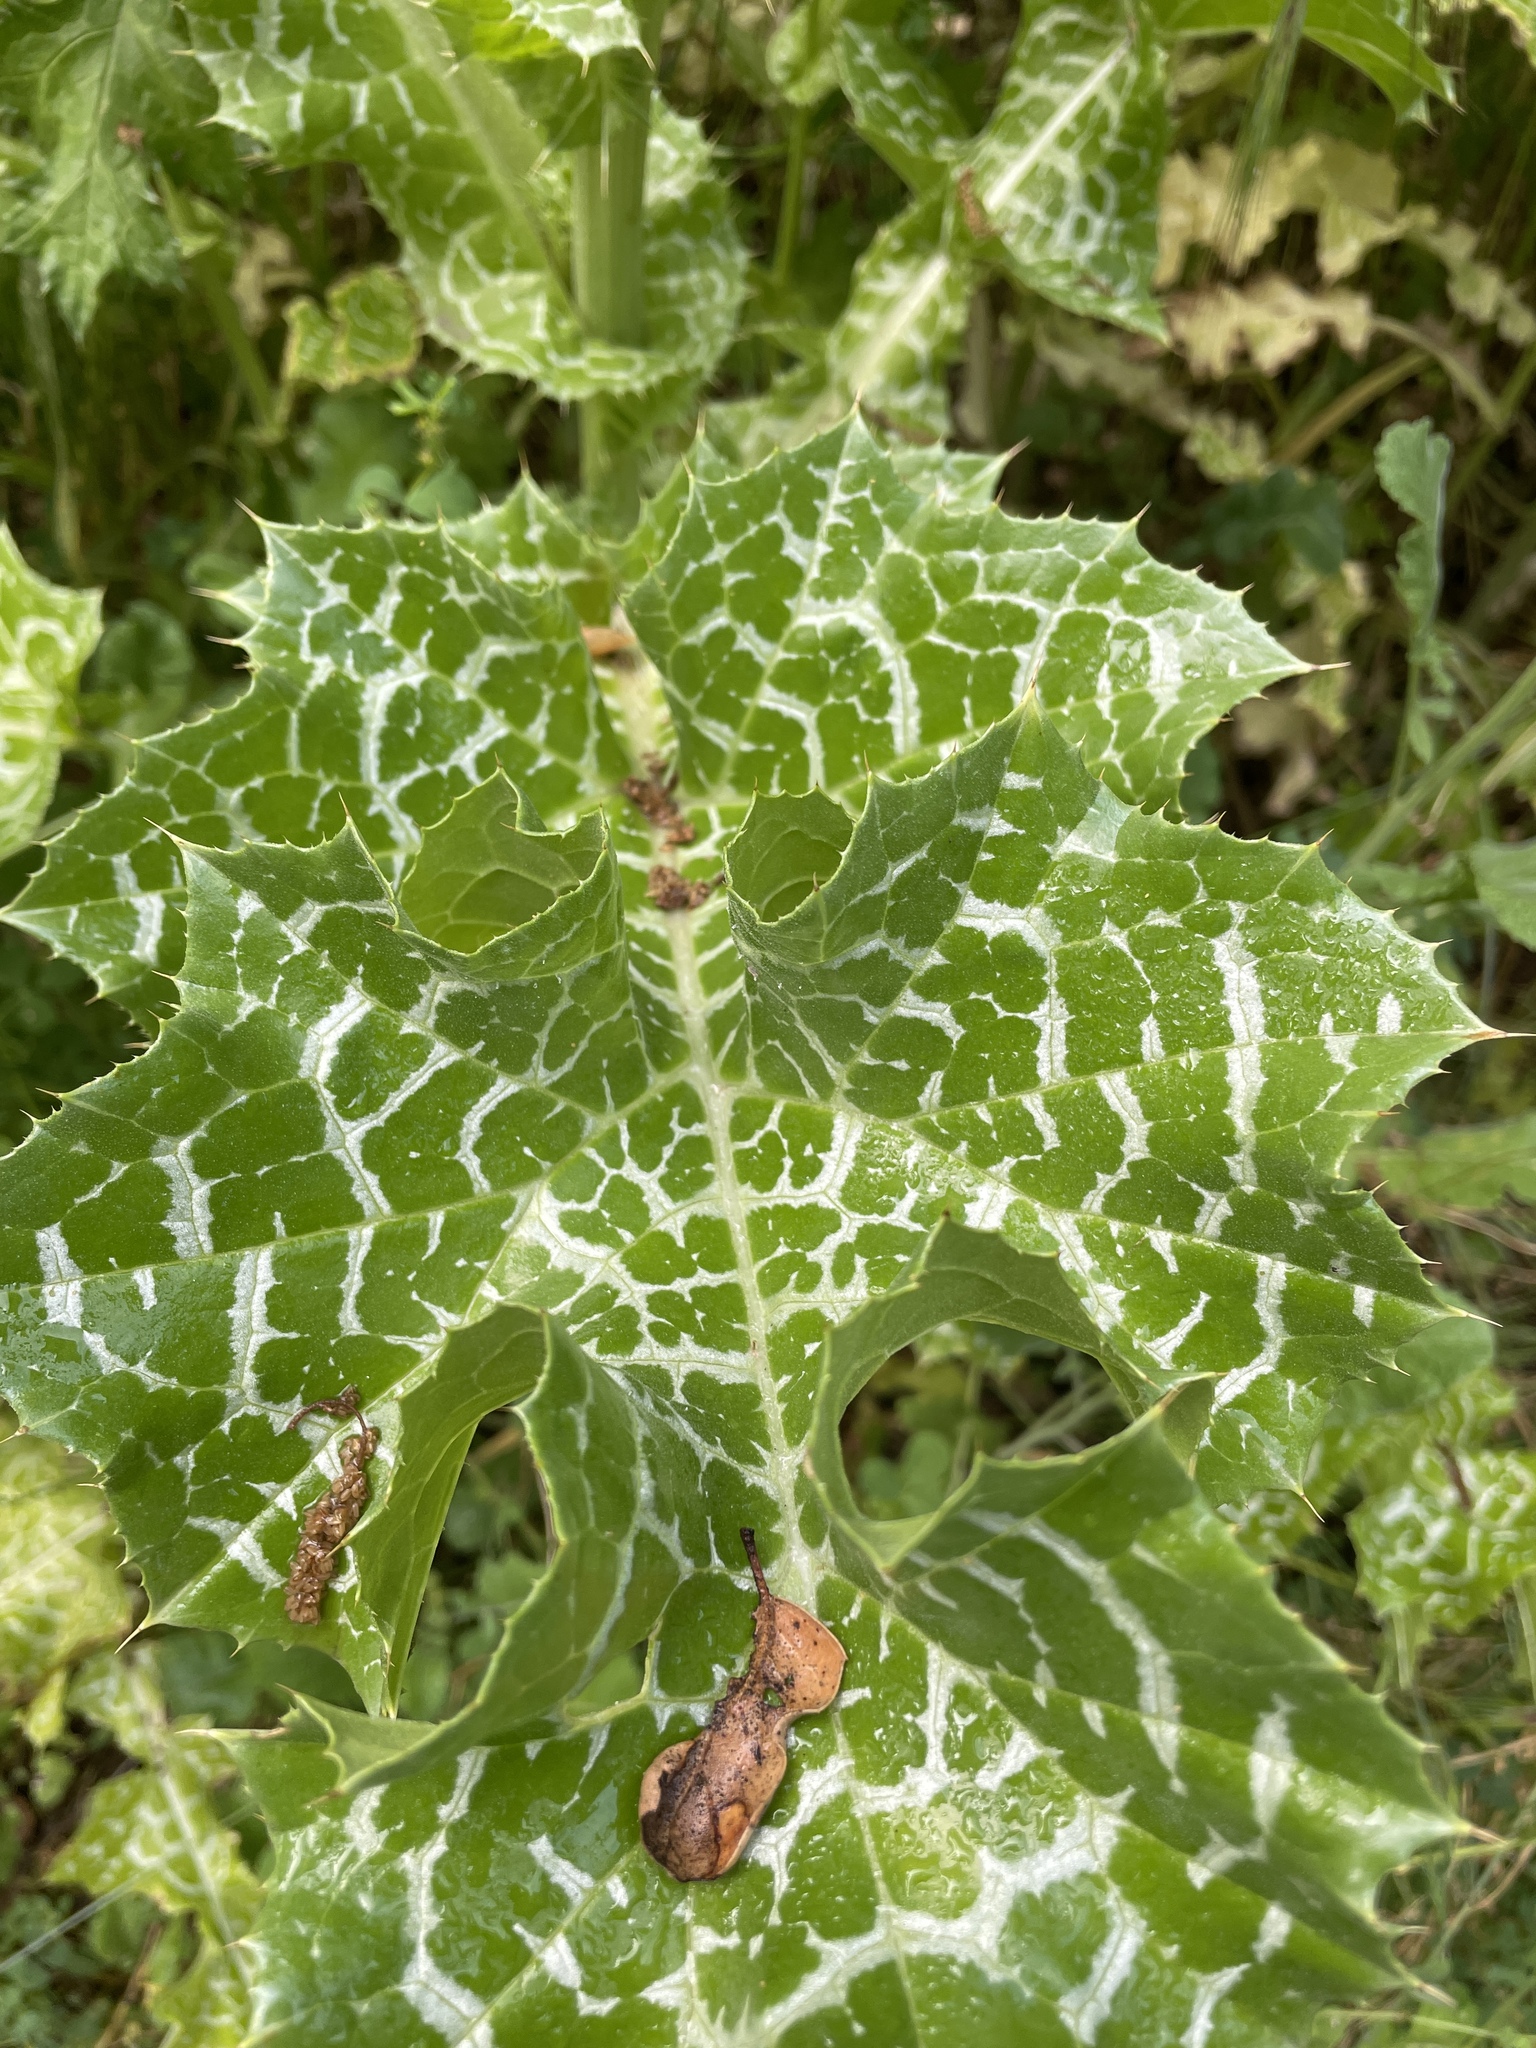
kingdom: Plantae
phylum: Tracheophyta
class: Magnoliopsida
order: Asterales
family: Asteraceae
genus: Silybum
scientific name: Silybum marianum
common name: Milk thistle
